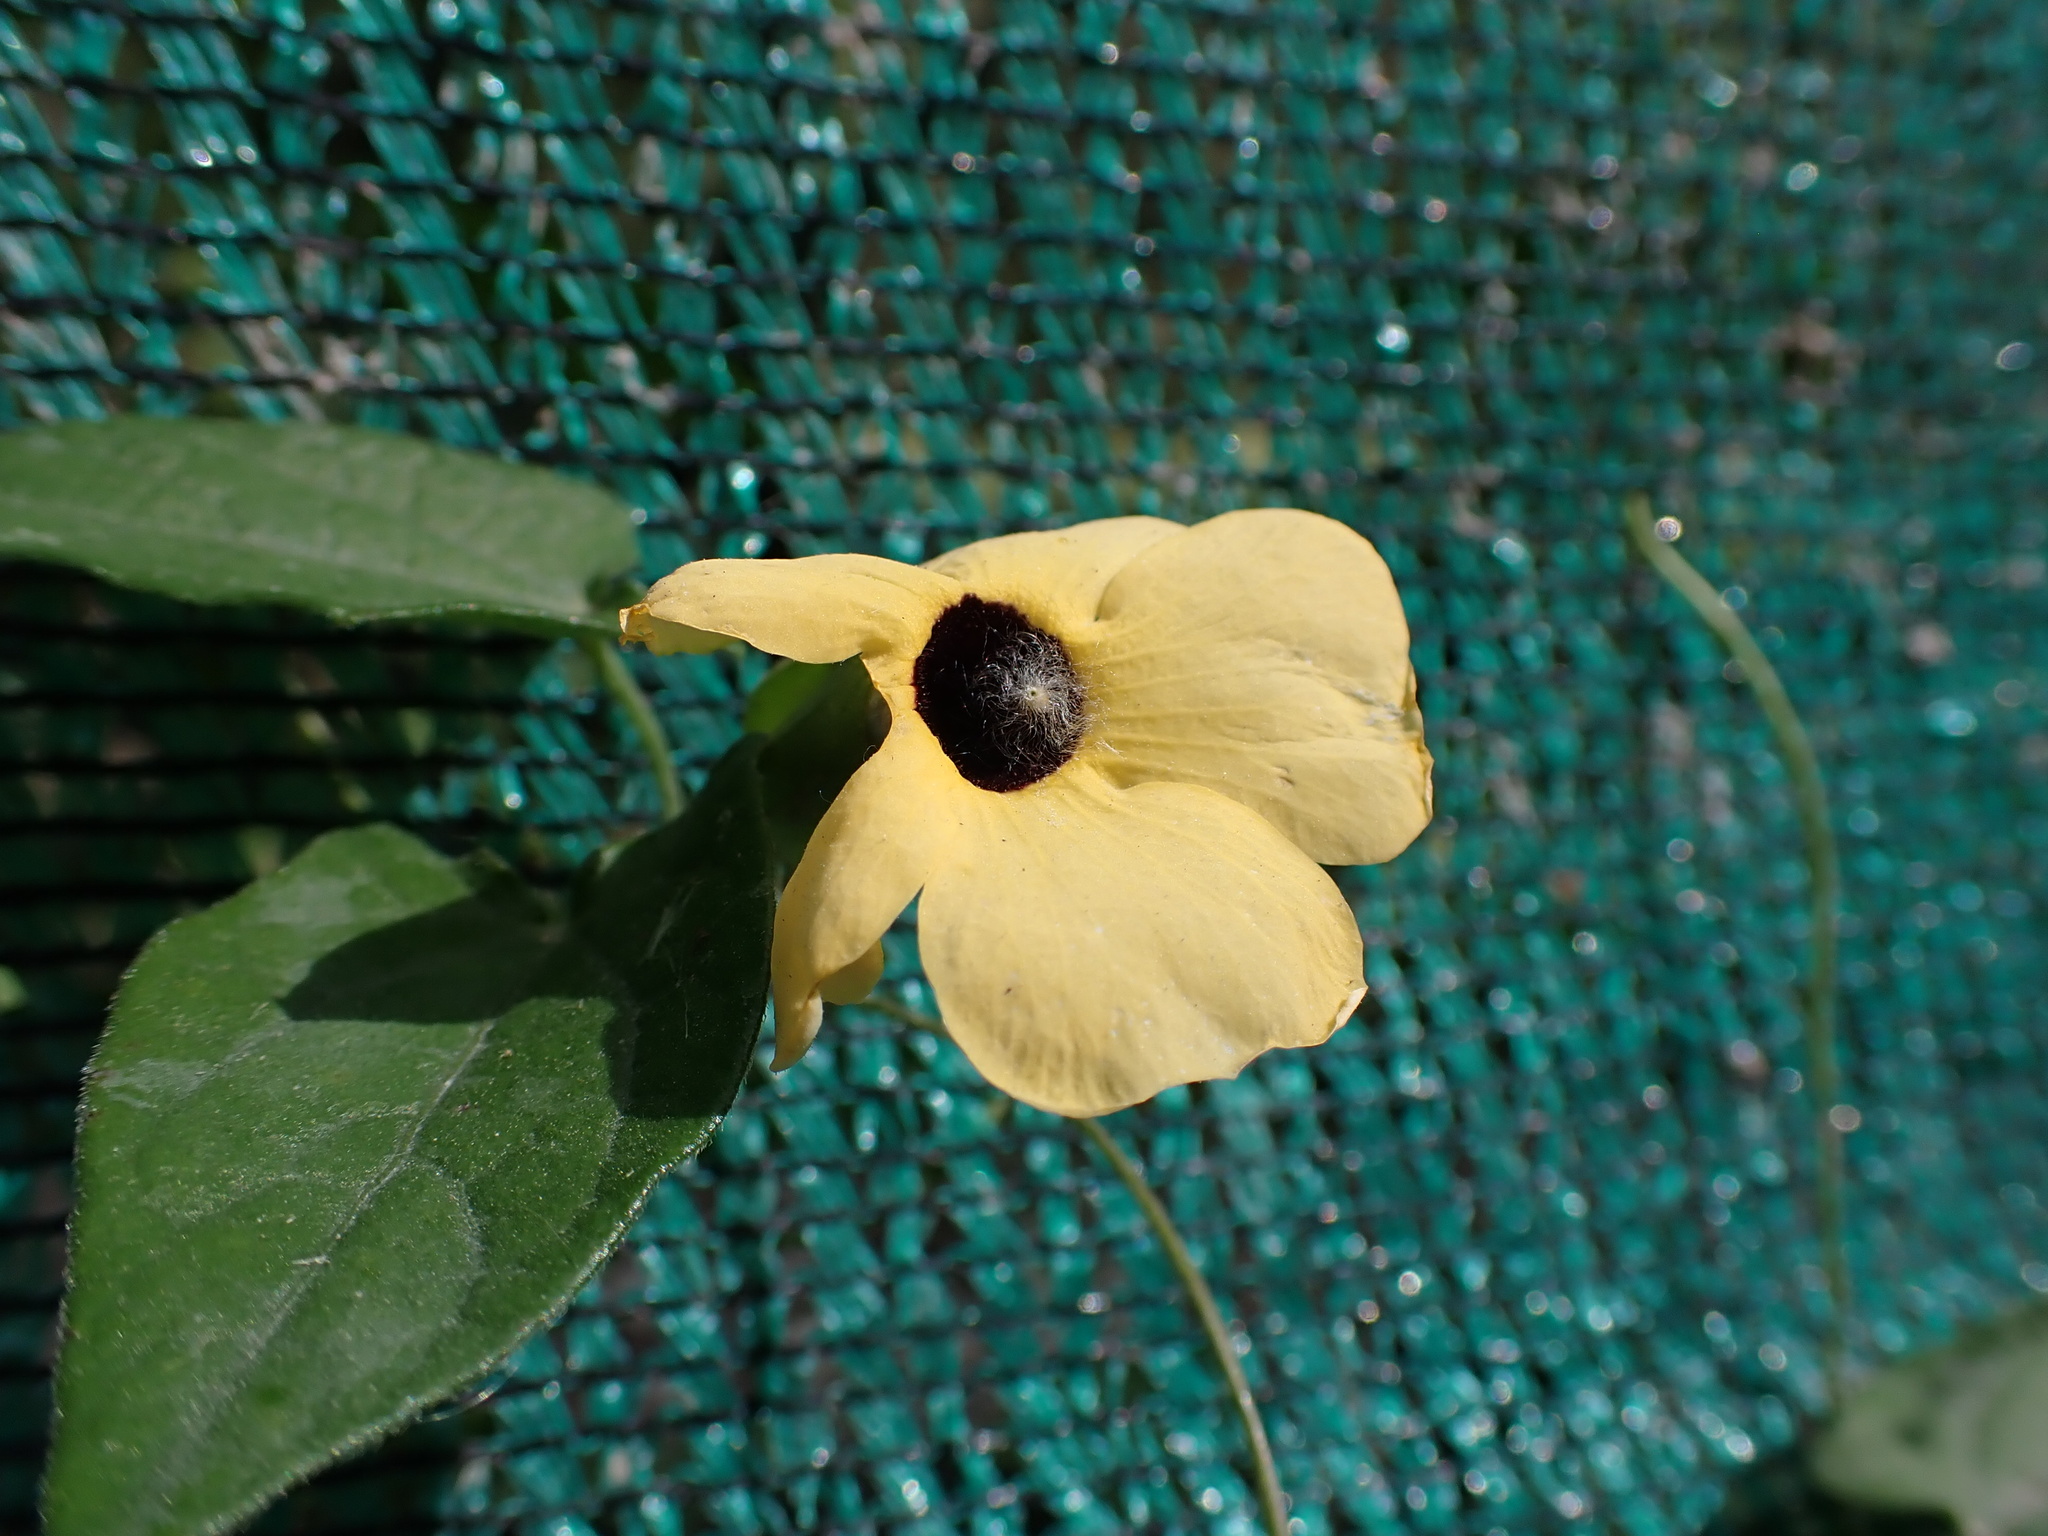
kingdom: Plantae
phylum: Tracheophyta
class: Magnoliopsida
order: Lamiales
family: Acanthaceae
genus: Thunbergia
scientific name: Thunbergia alata
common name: Blackeyed susan vine
